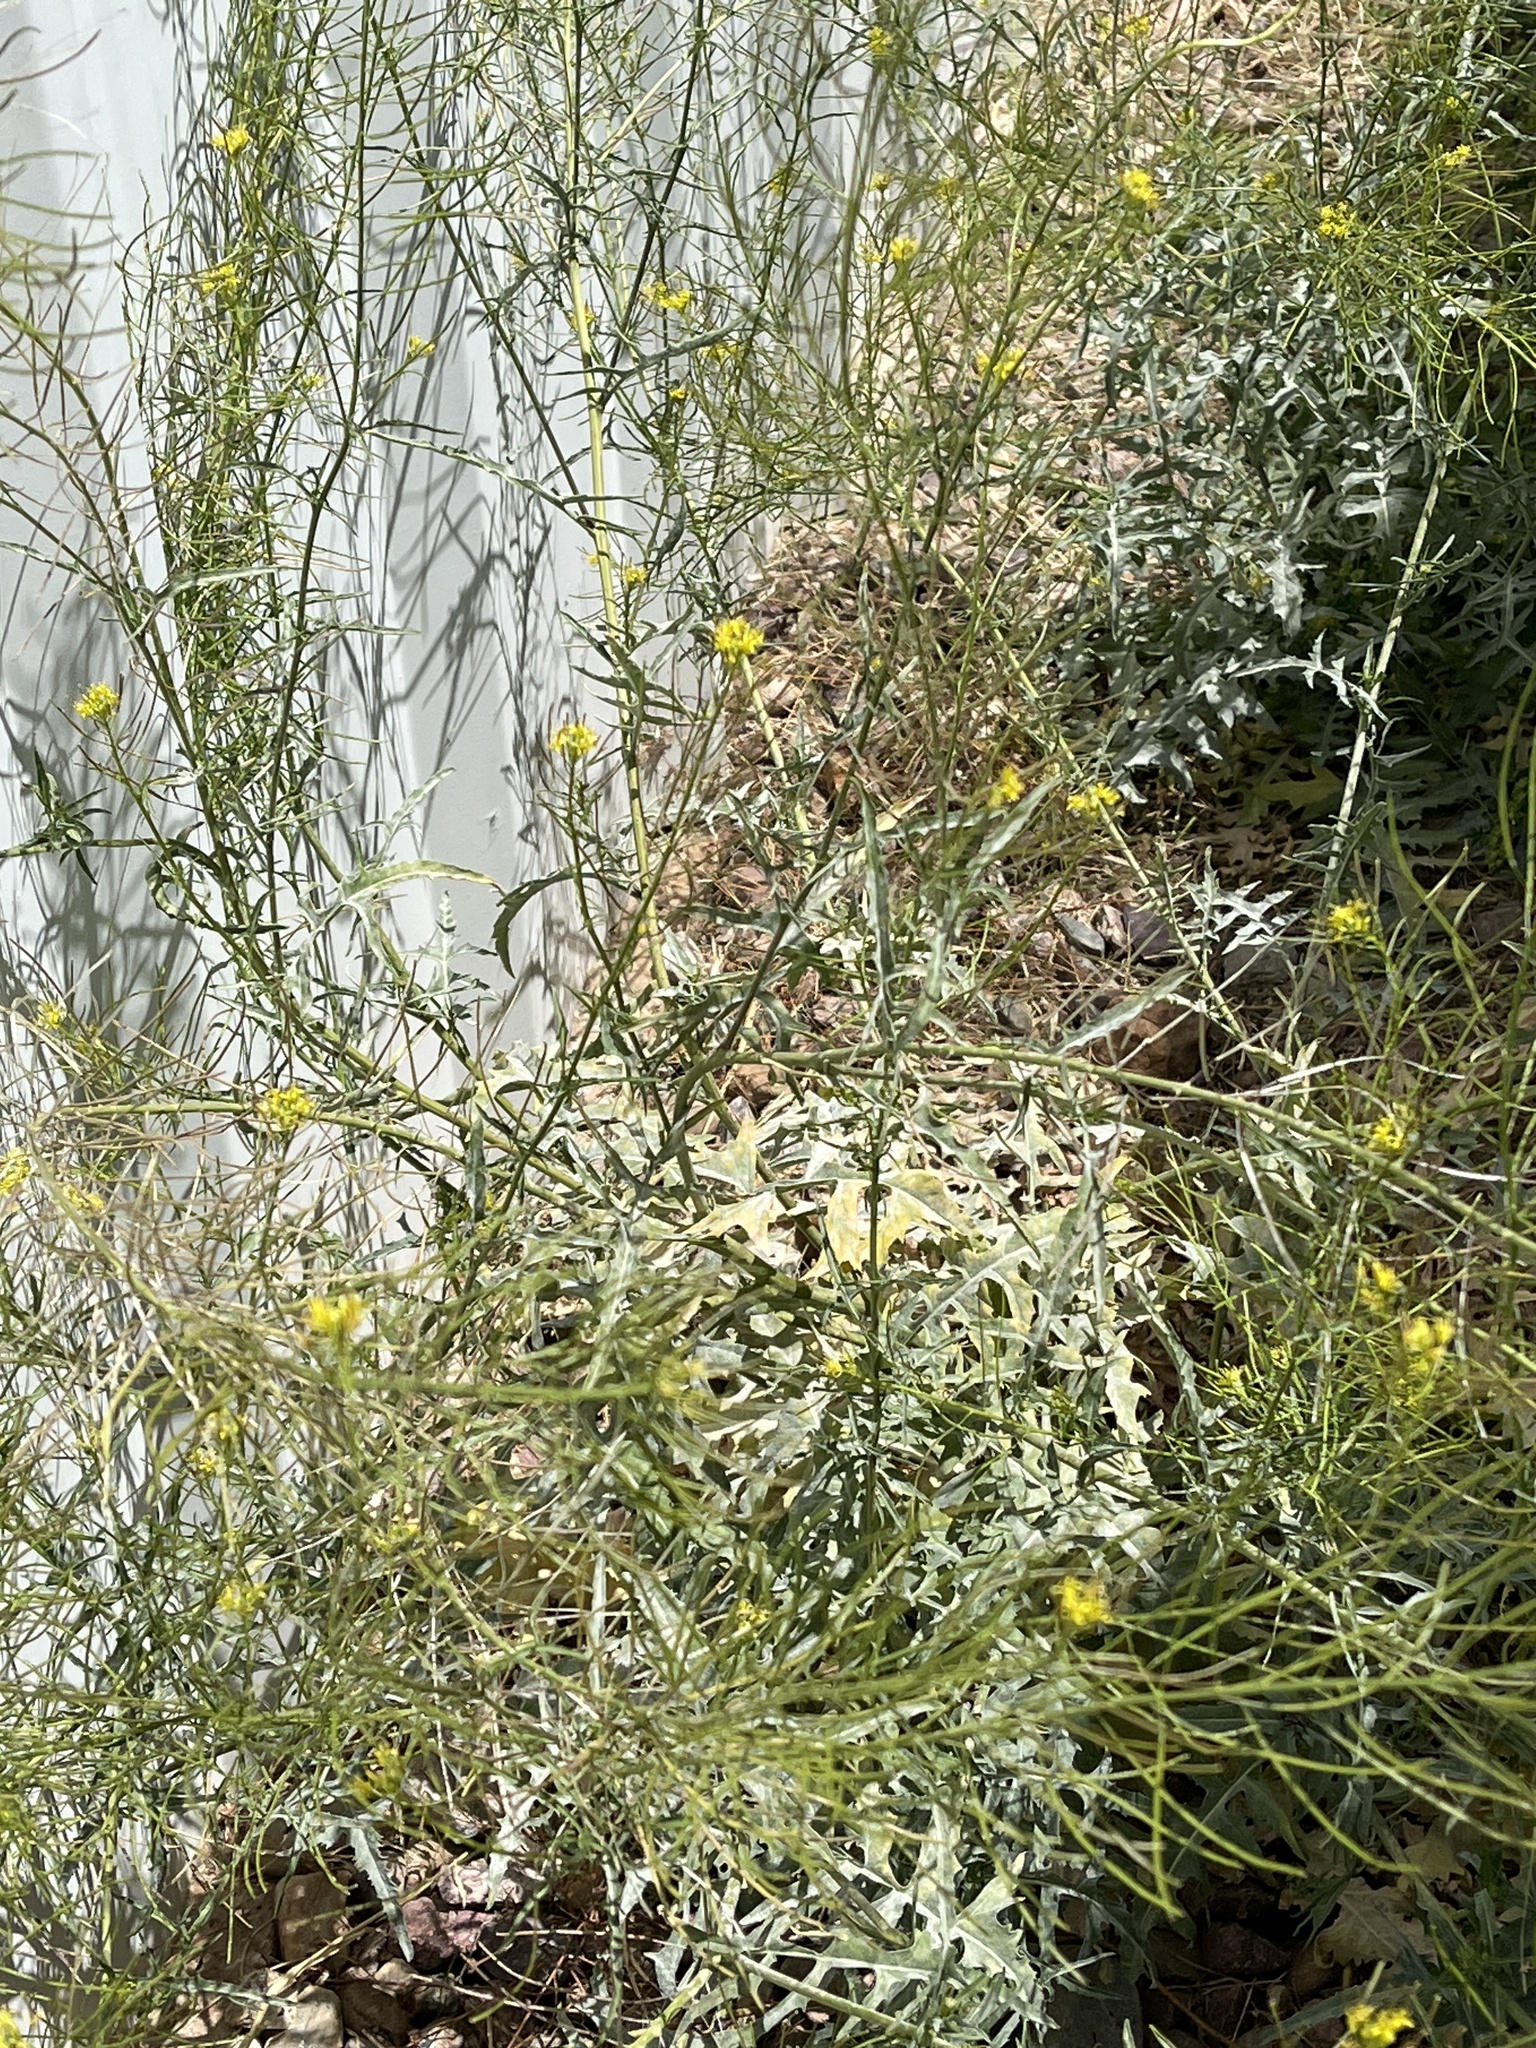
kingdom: Plantae
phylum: Tracheophyta
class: Magnoliopsida
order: Brassicales
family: Brassicaceae
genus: Sisymbrium
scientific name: Sisymbrium irio
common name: London rocket
